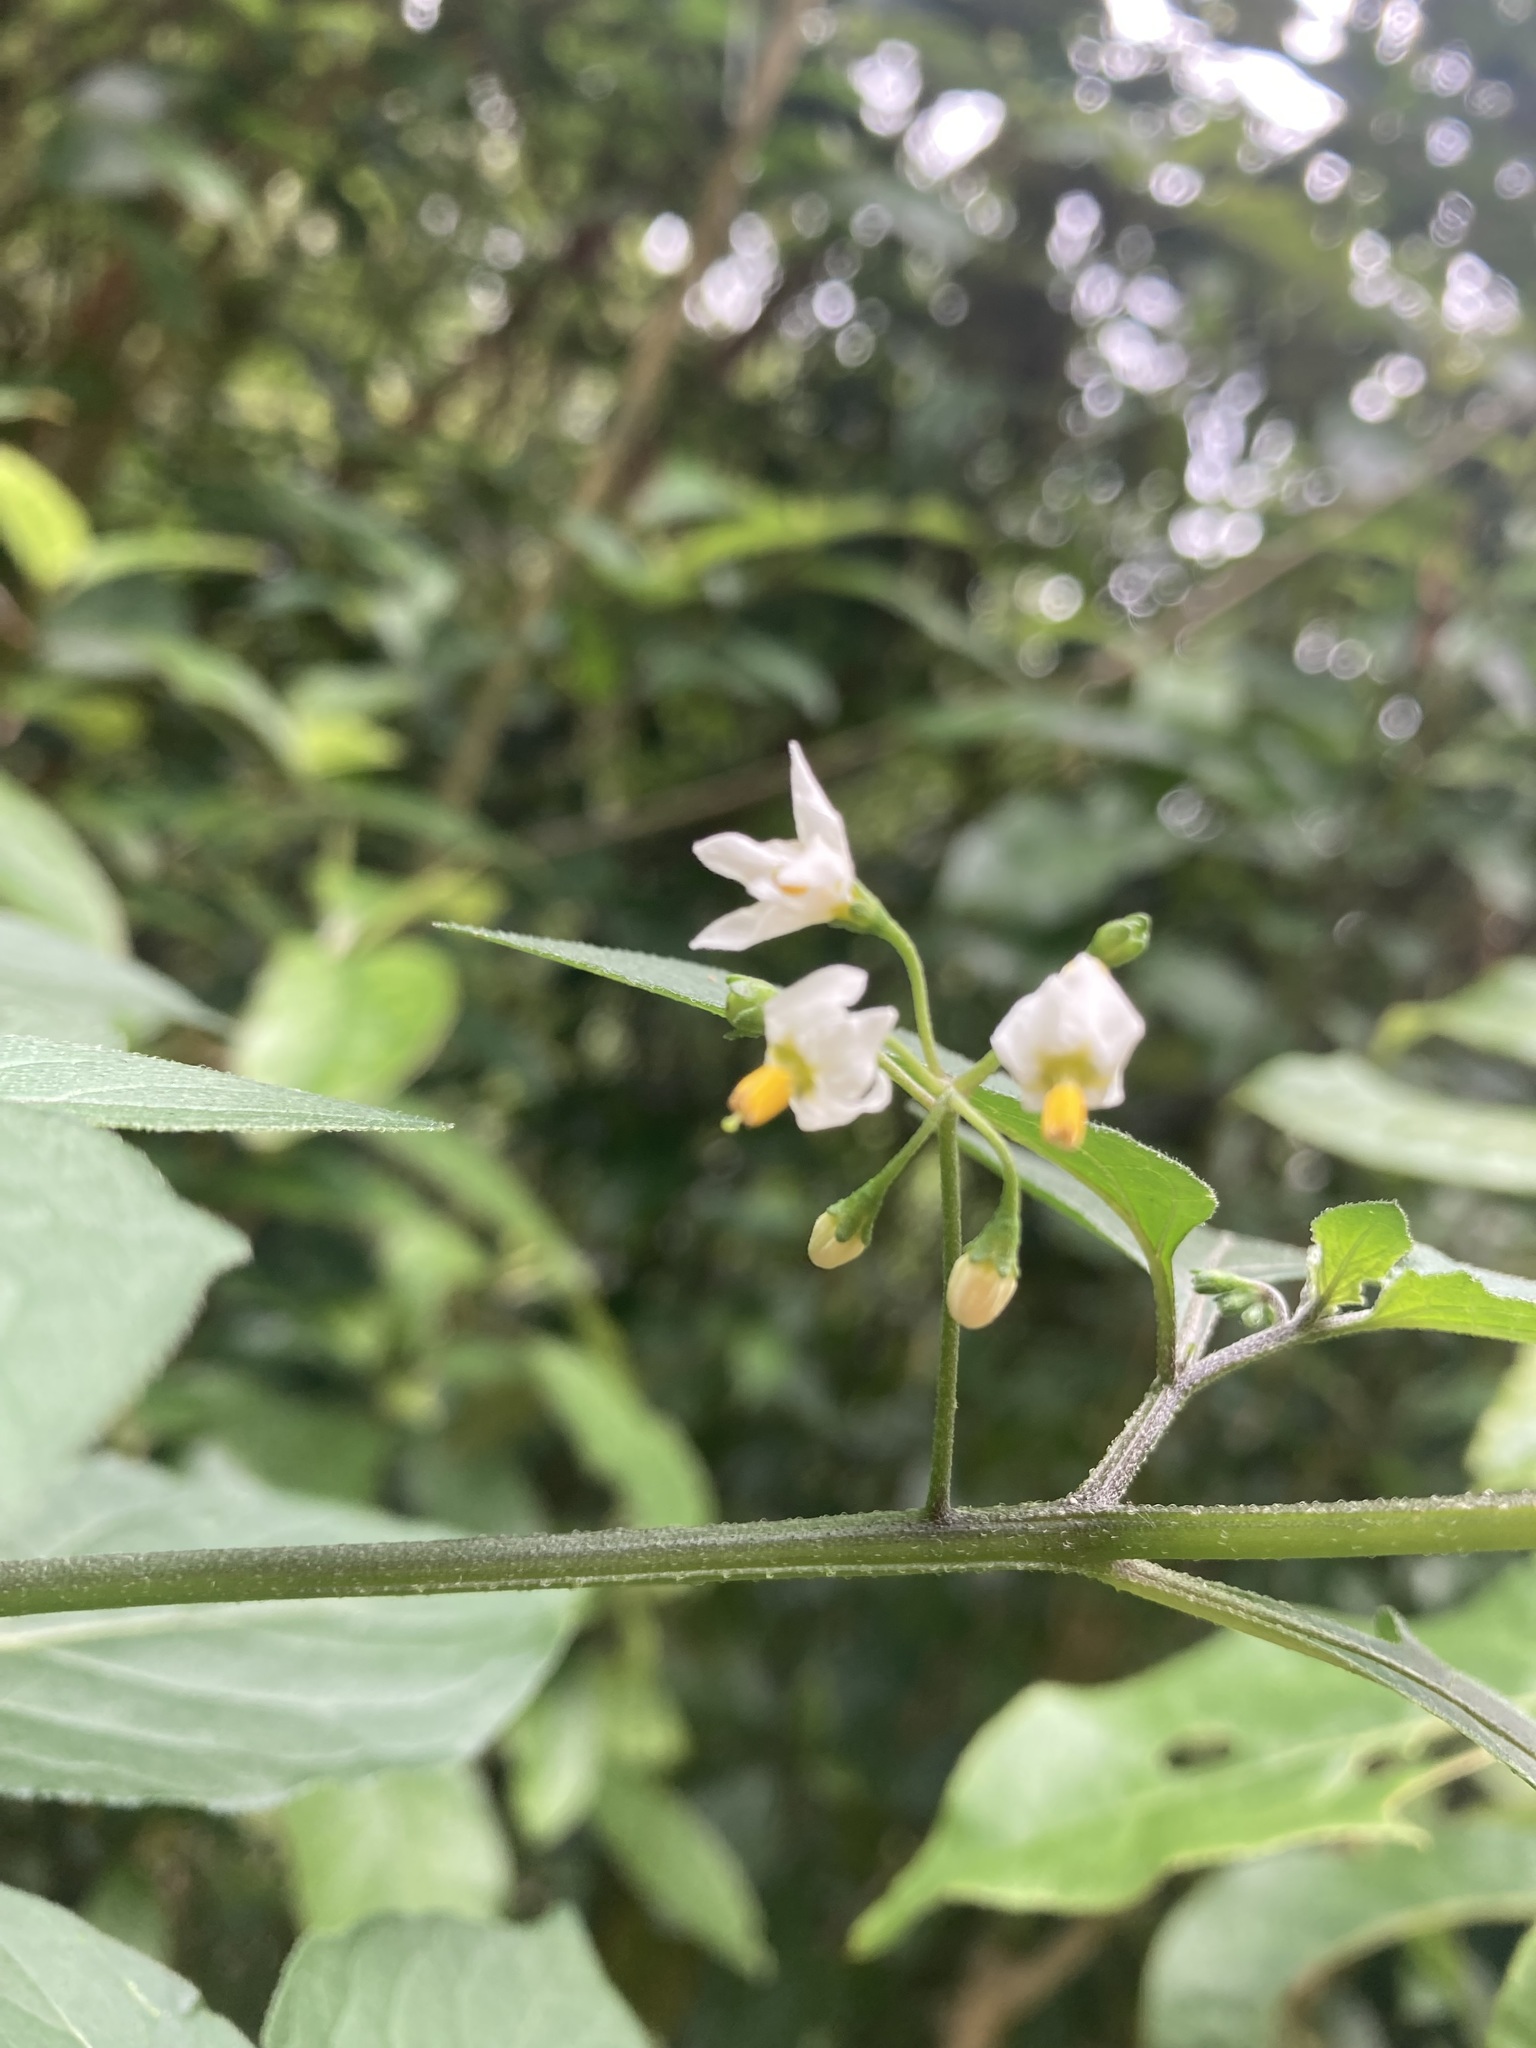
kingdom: Plantae
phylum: Tracheophyta
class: Magnoliopsida
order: Solanales
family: Solanaceae
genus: Solanum
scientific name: Solanum nigrum
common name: Black nightshade
